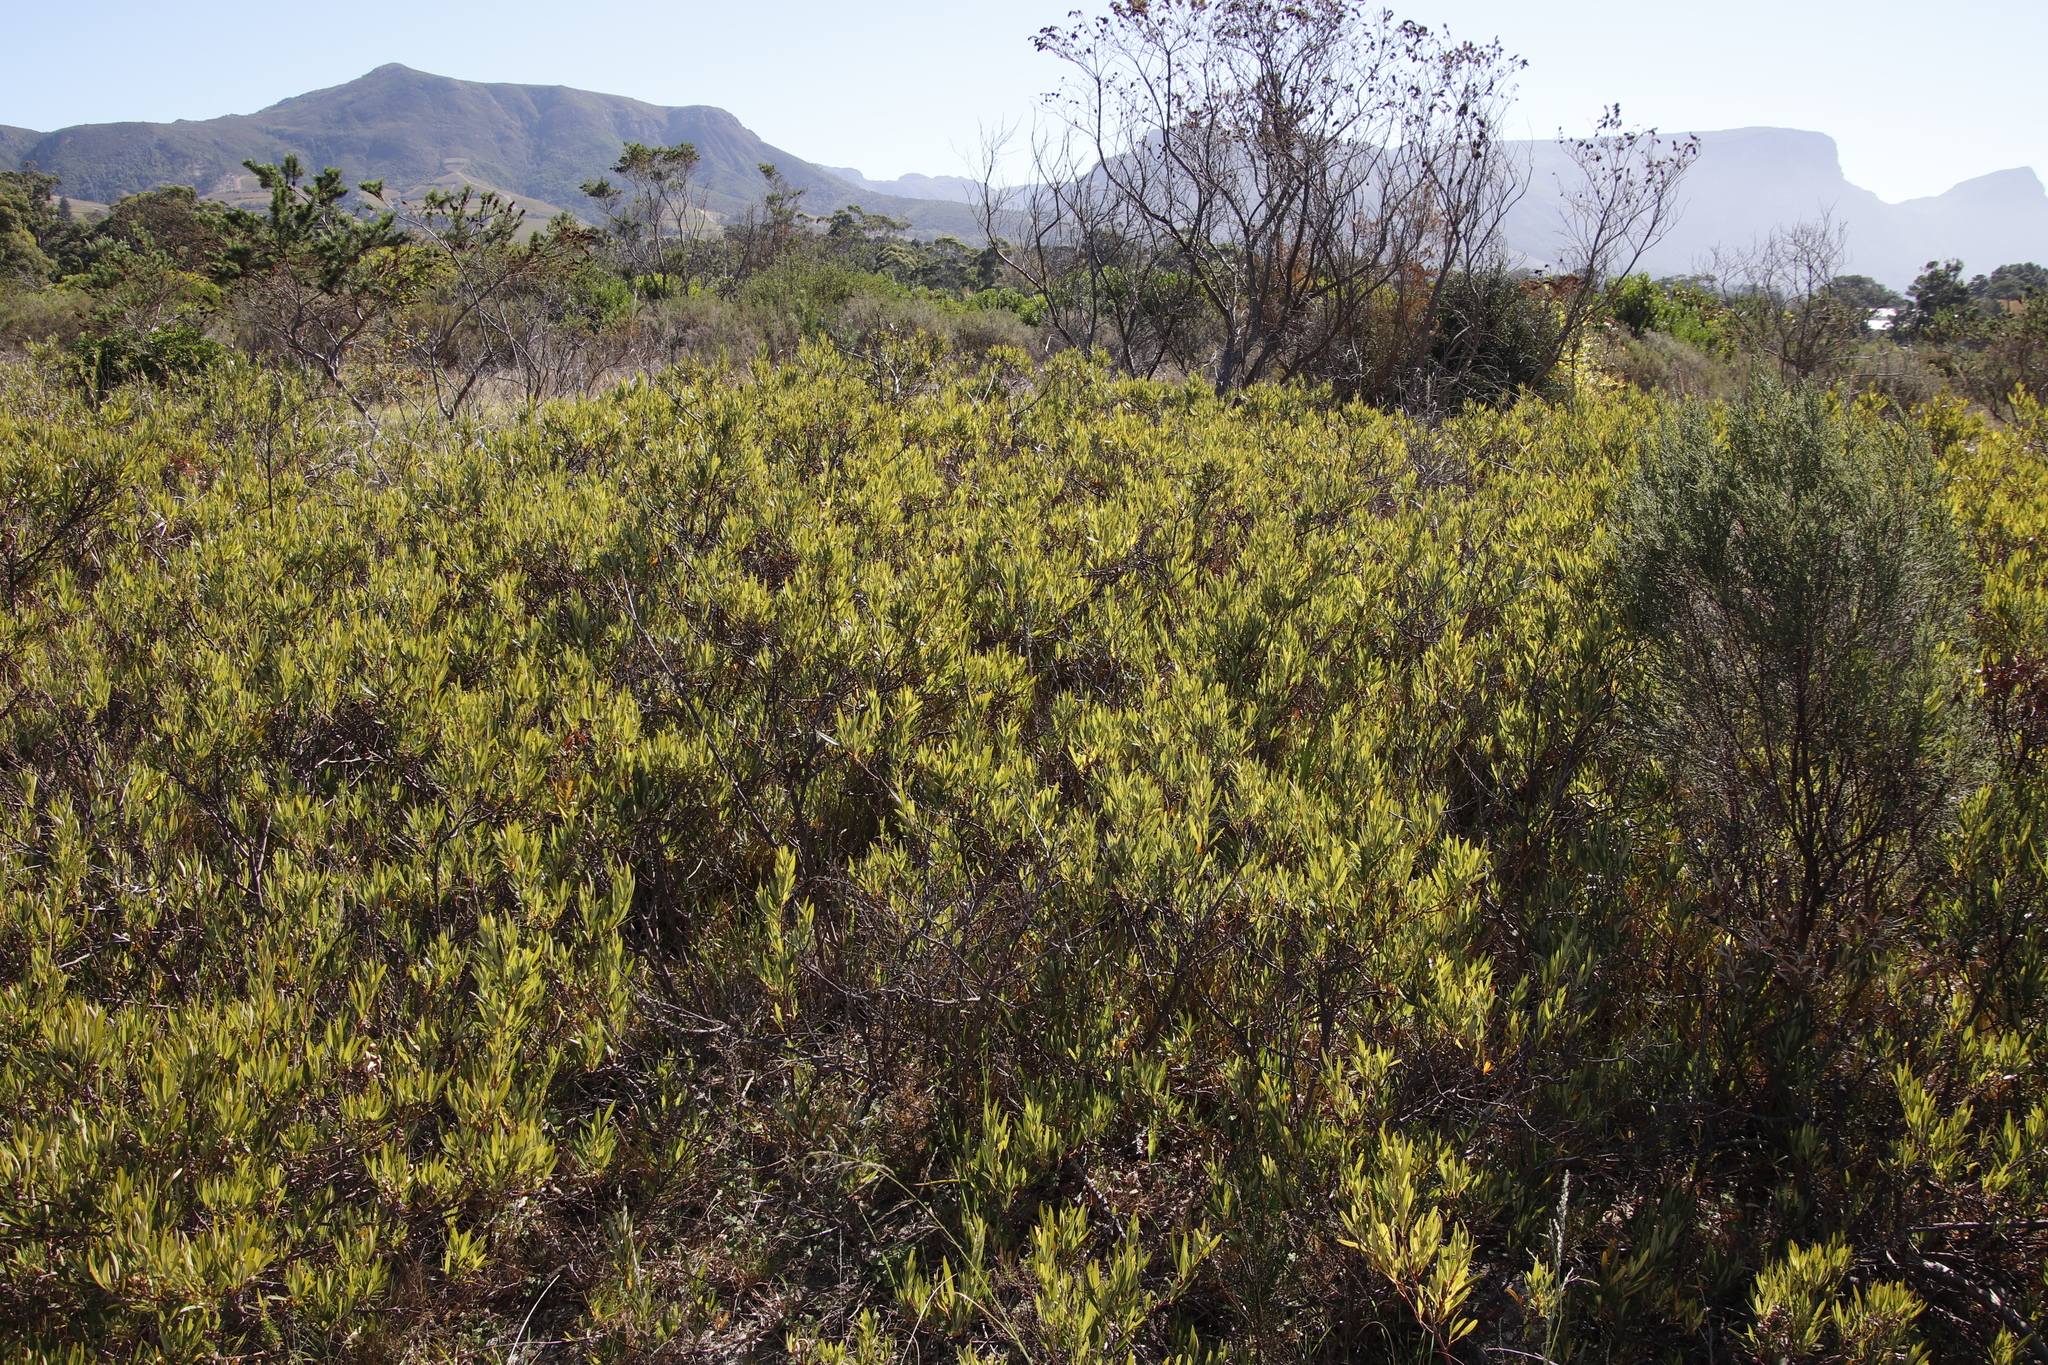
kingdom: Plantae
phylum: Tracheophyta
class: Magnoliopsida
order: Sapindales
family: Anacardiaceae
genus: Searsia
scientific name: Searsia angustifolia
